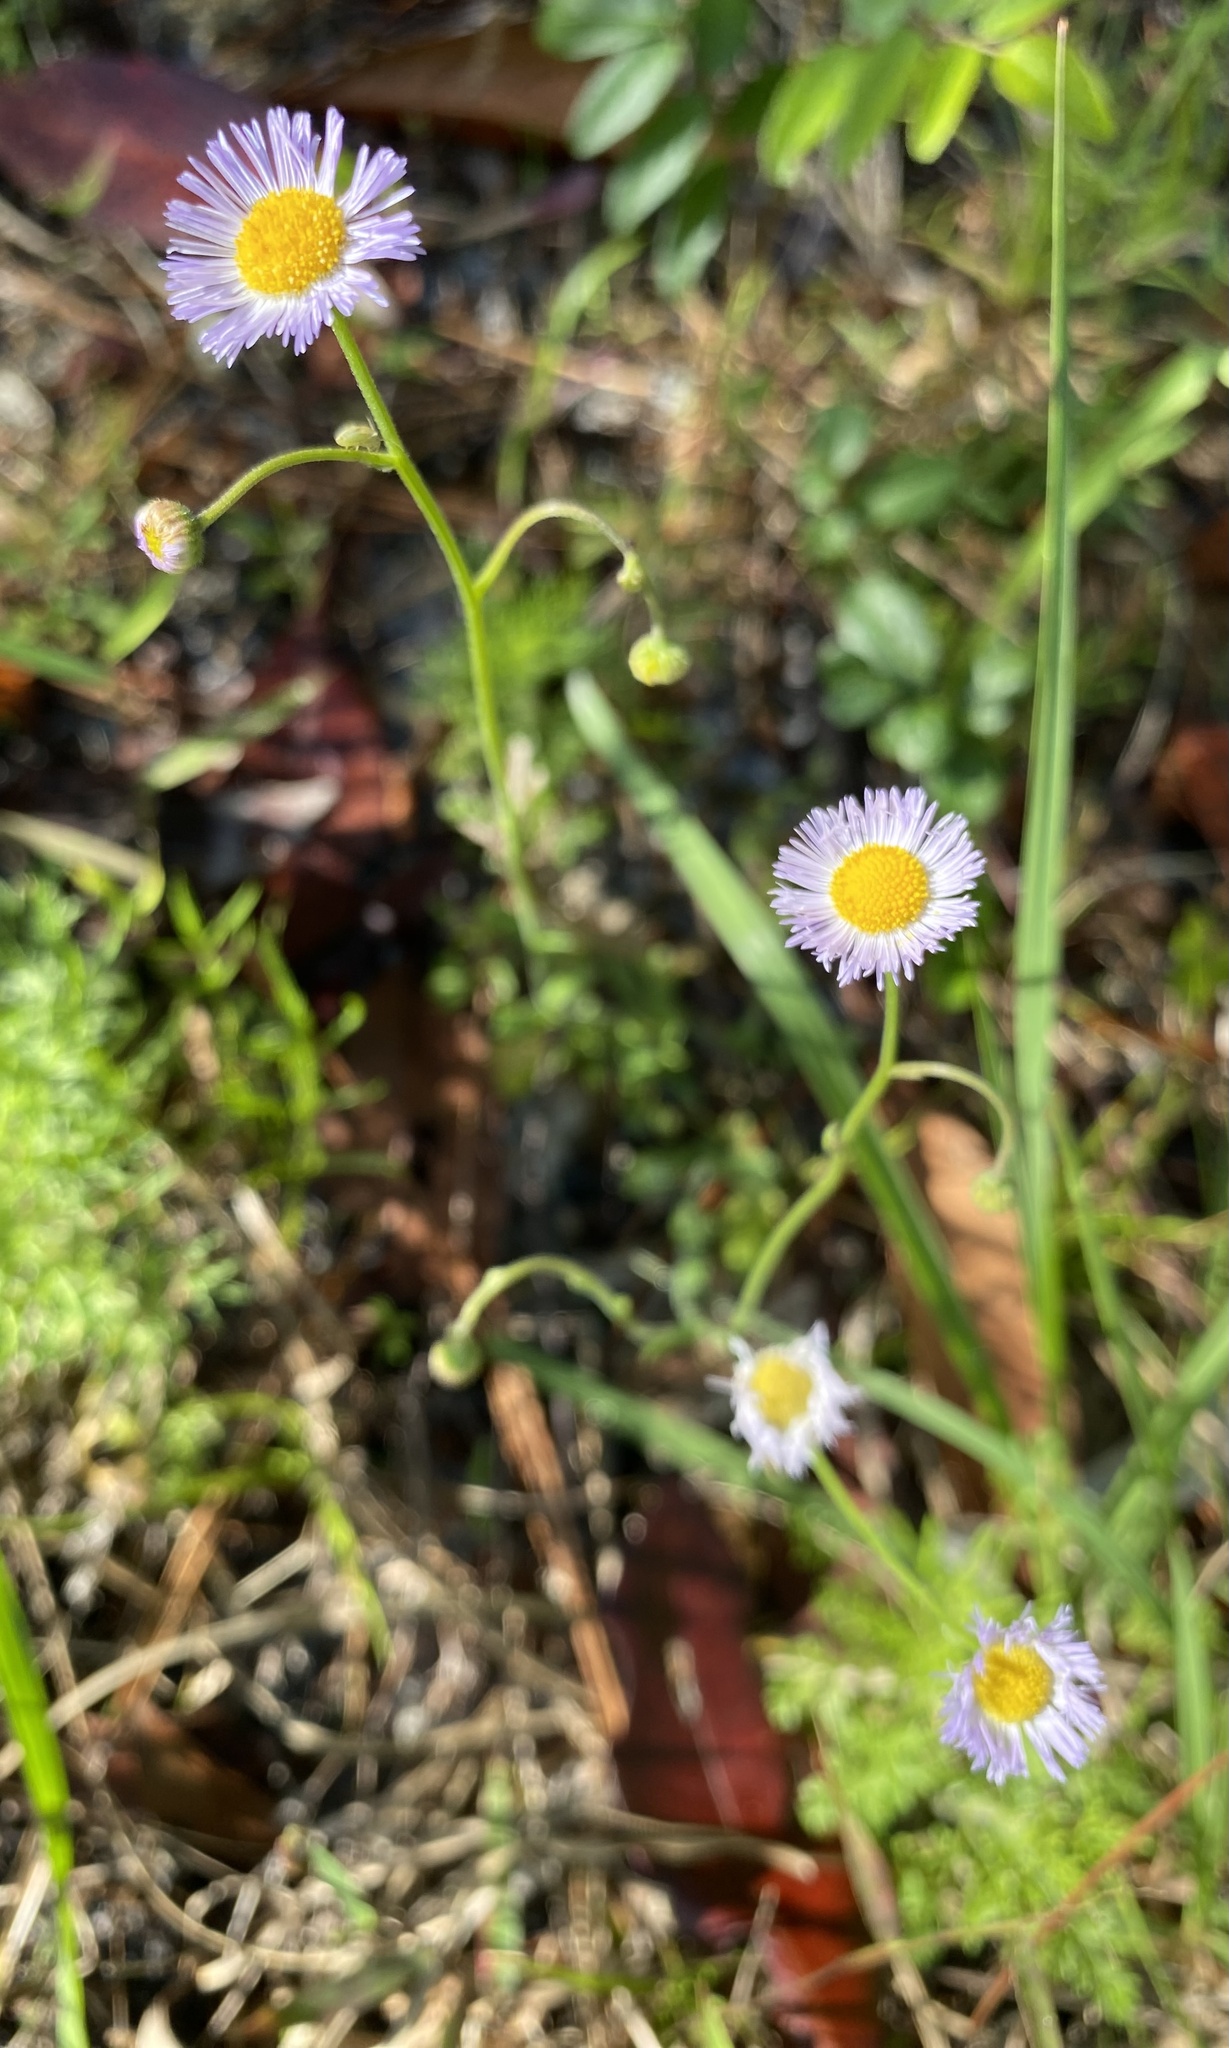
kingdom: Plantae
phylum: Tracheophyta
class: Magnoliopsida
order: Asterales
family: Asteraceae
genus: Erigeron
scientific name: Erigeron quercifolius
